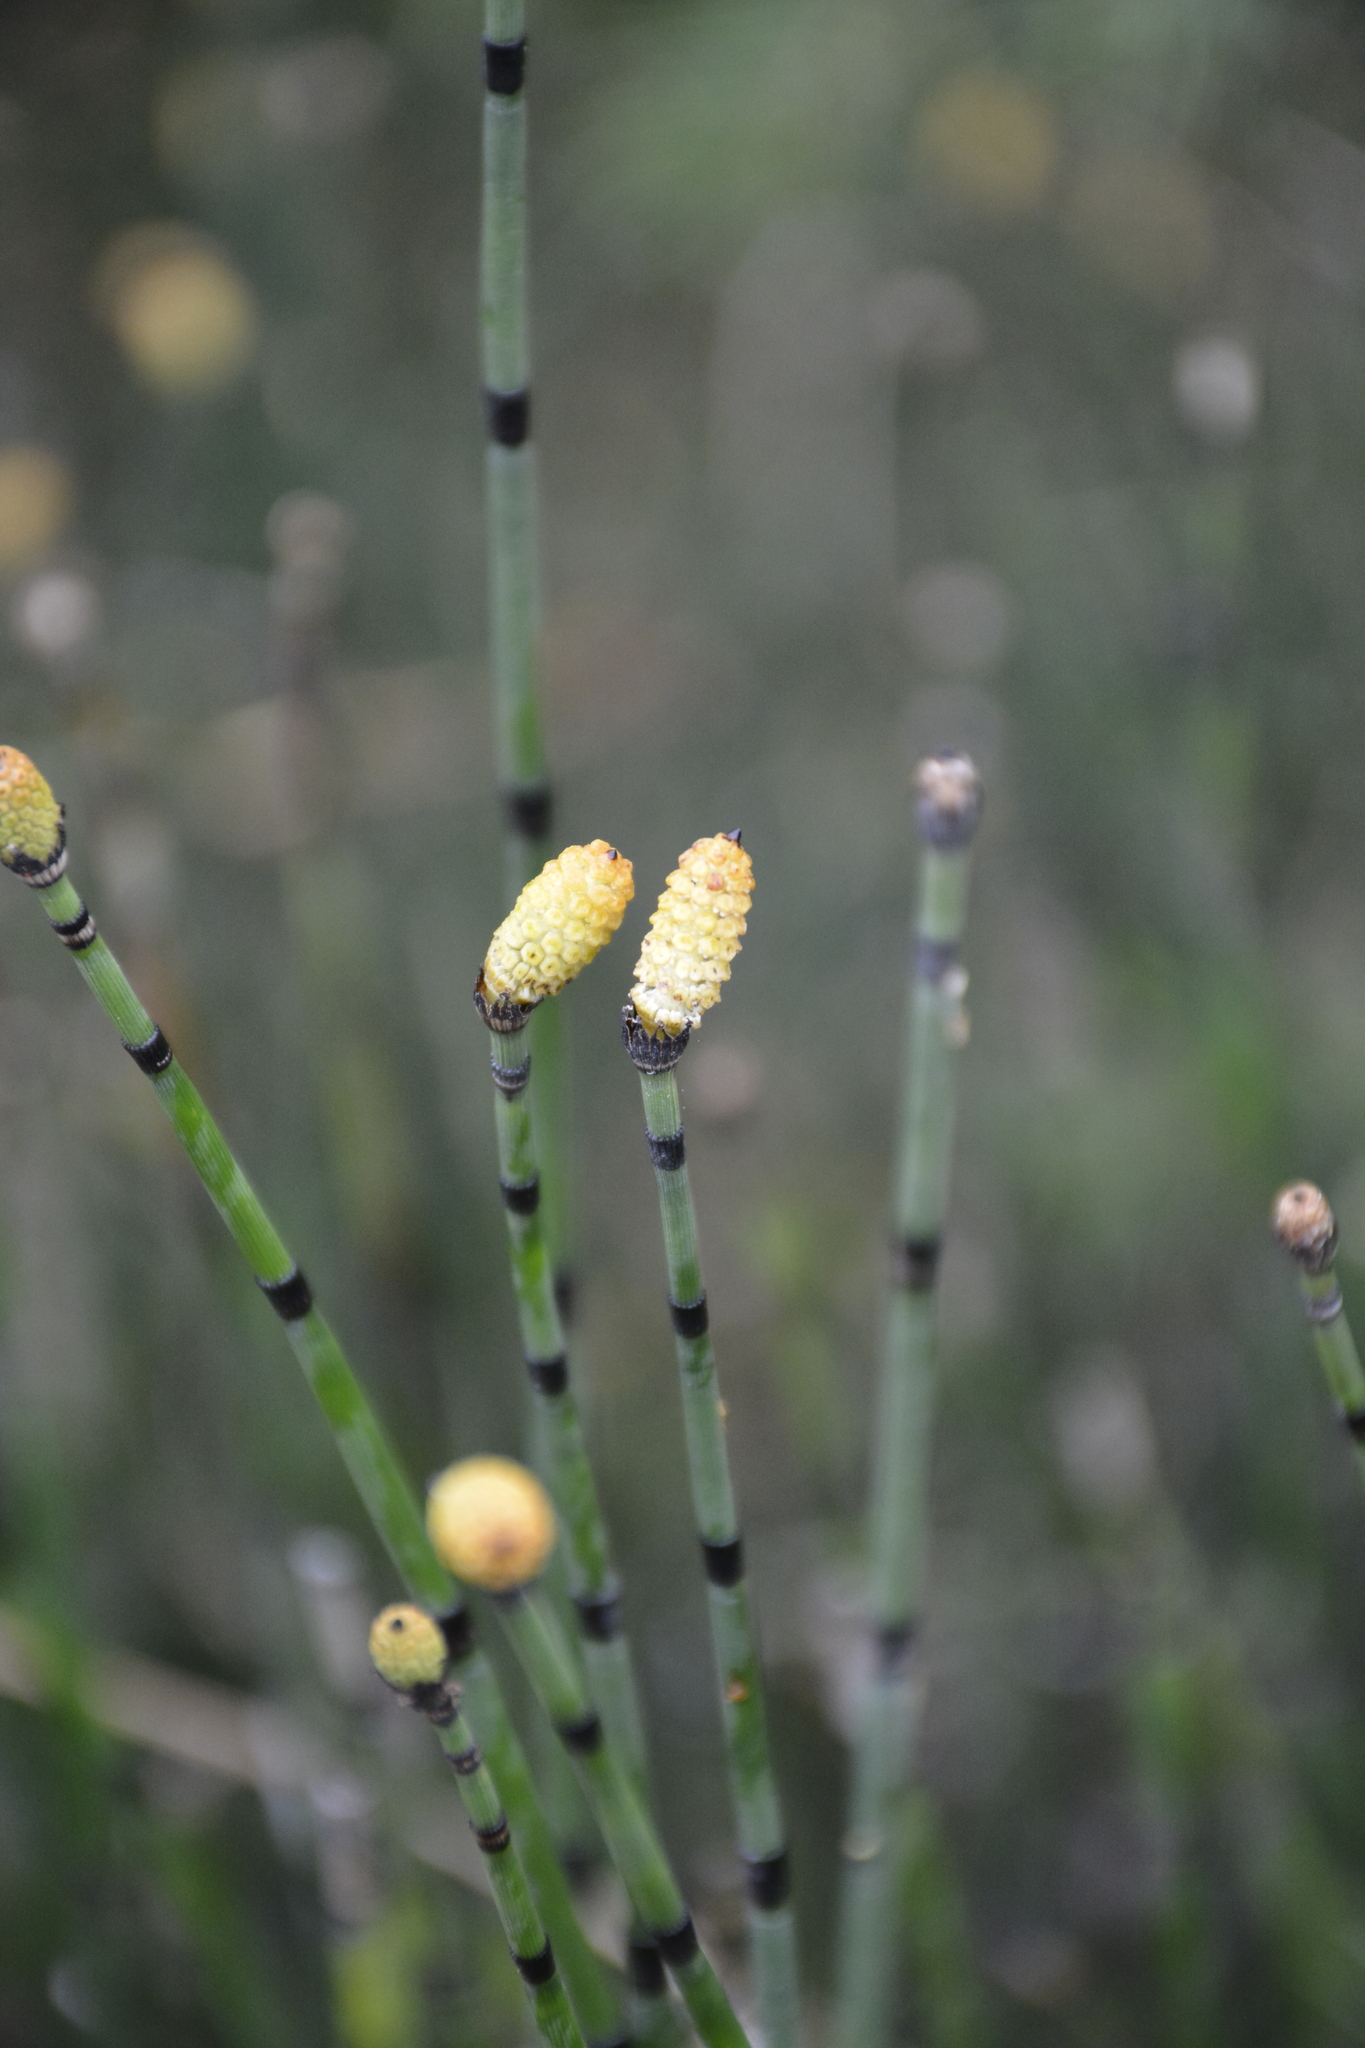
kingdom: Plantae
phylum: Tracheophyta
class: Polypodiopsida
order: Equisetales
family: Equisetaceae
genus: Equisetum
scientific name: Equisetum hyemale
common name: Rough horsetail
